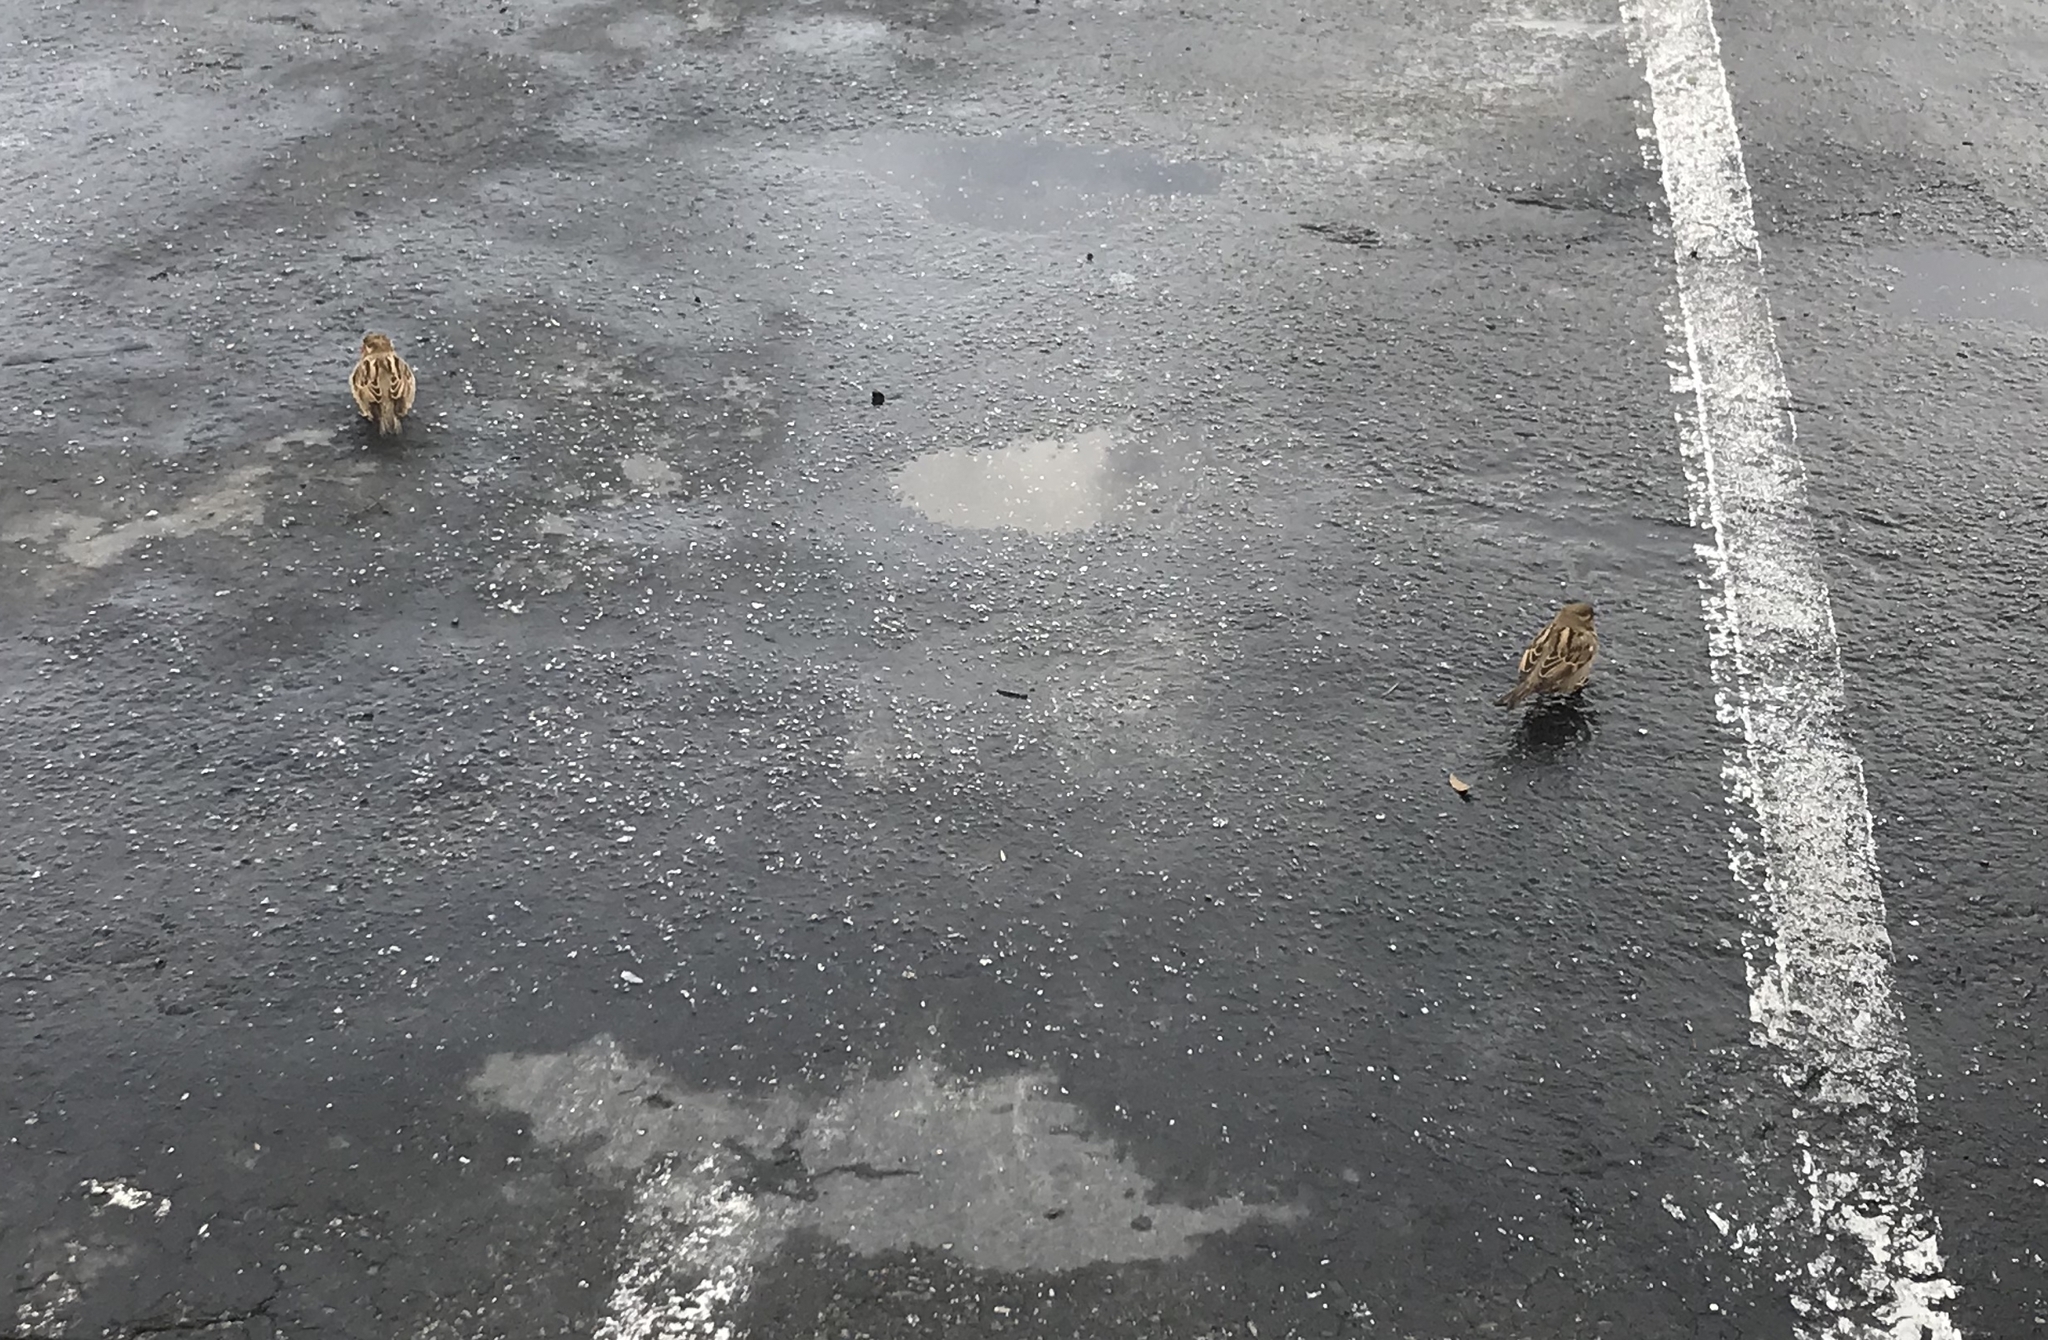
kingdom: Animalia
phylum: Chordata
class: Aves
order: Passeriformes
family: Passeridae
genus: Passer
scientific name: Passer domesticus
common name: House sparrow
